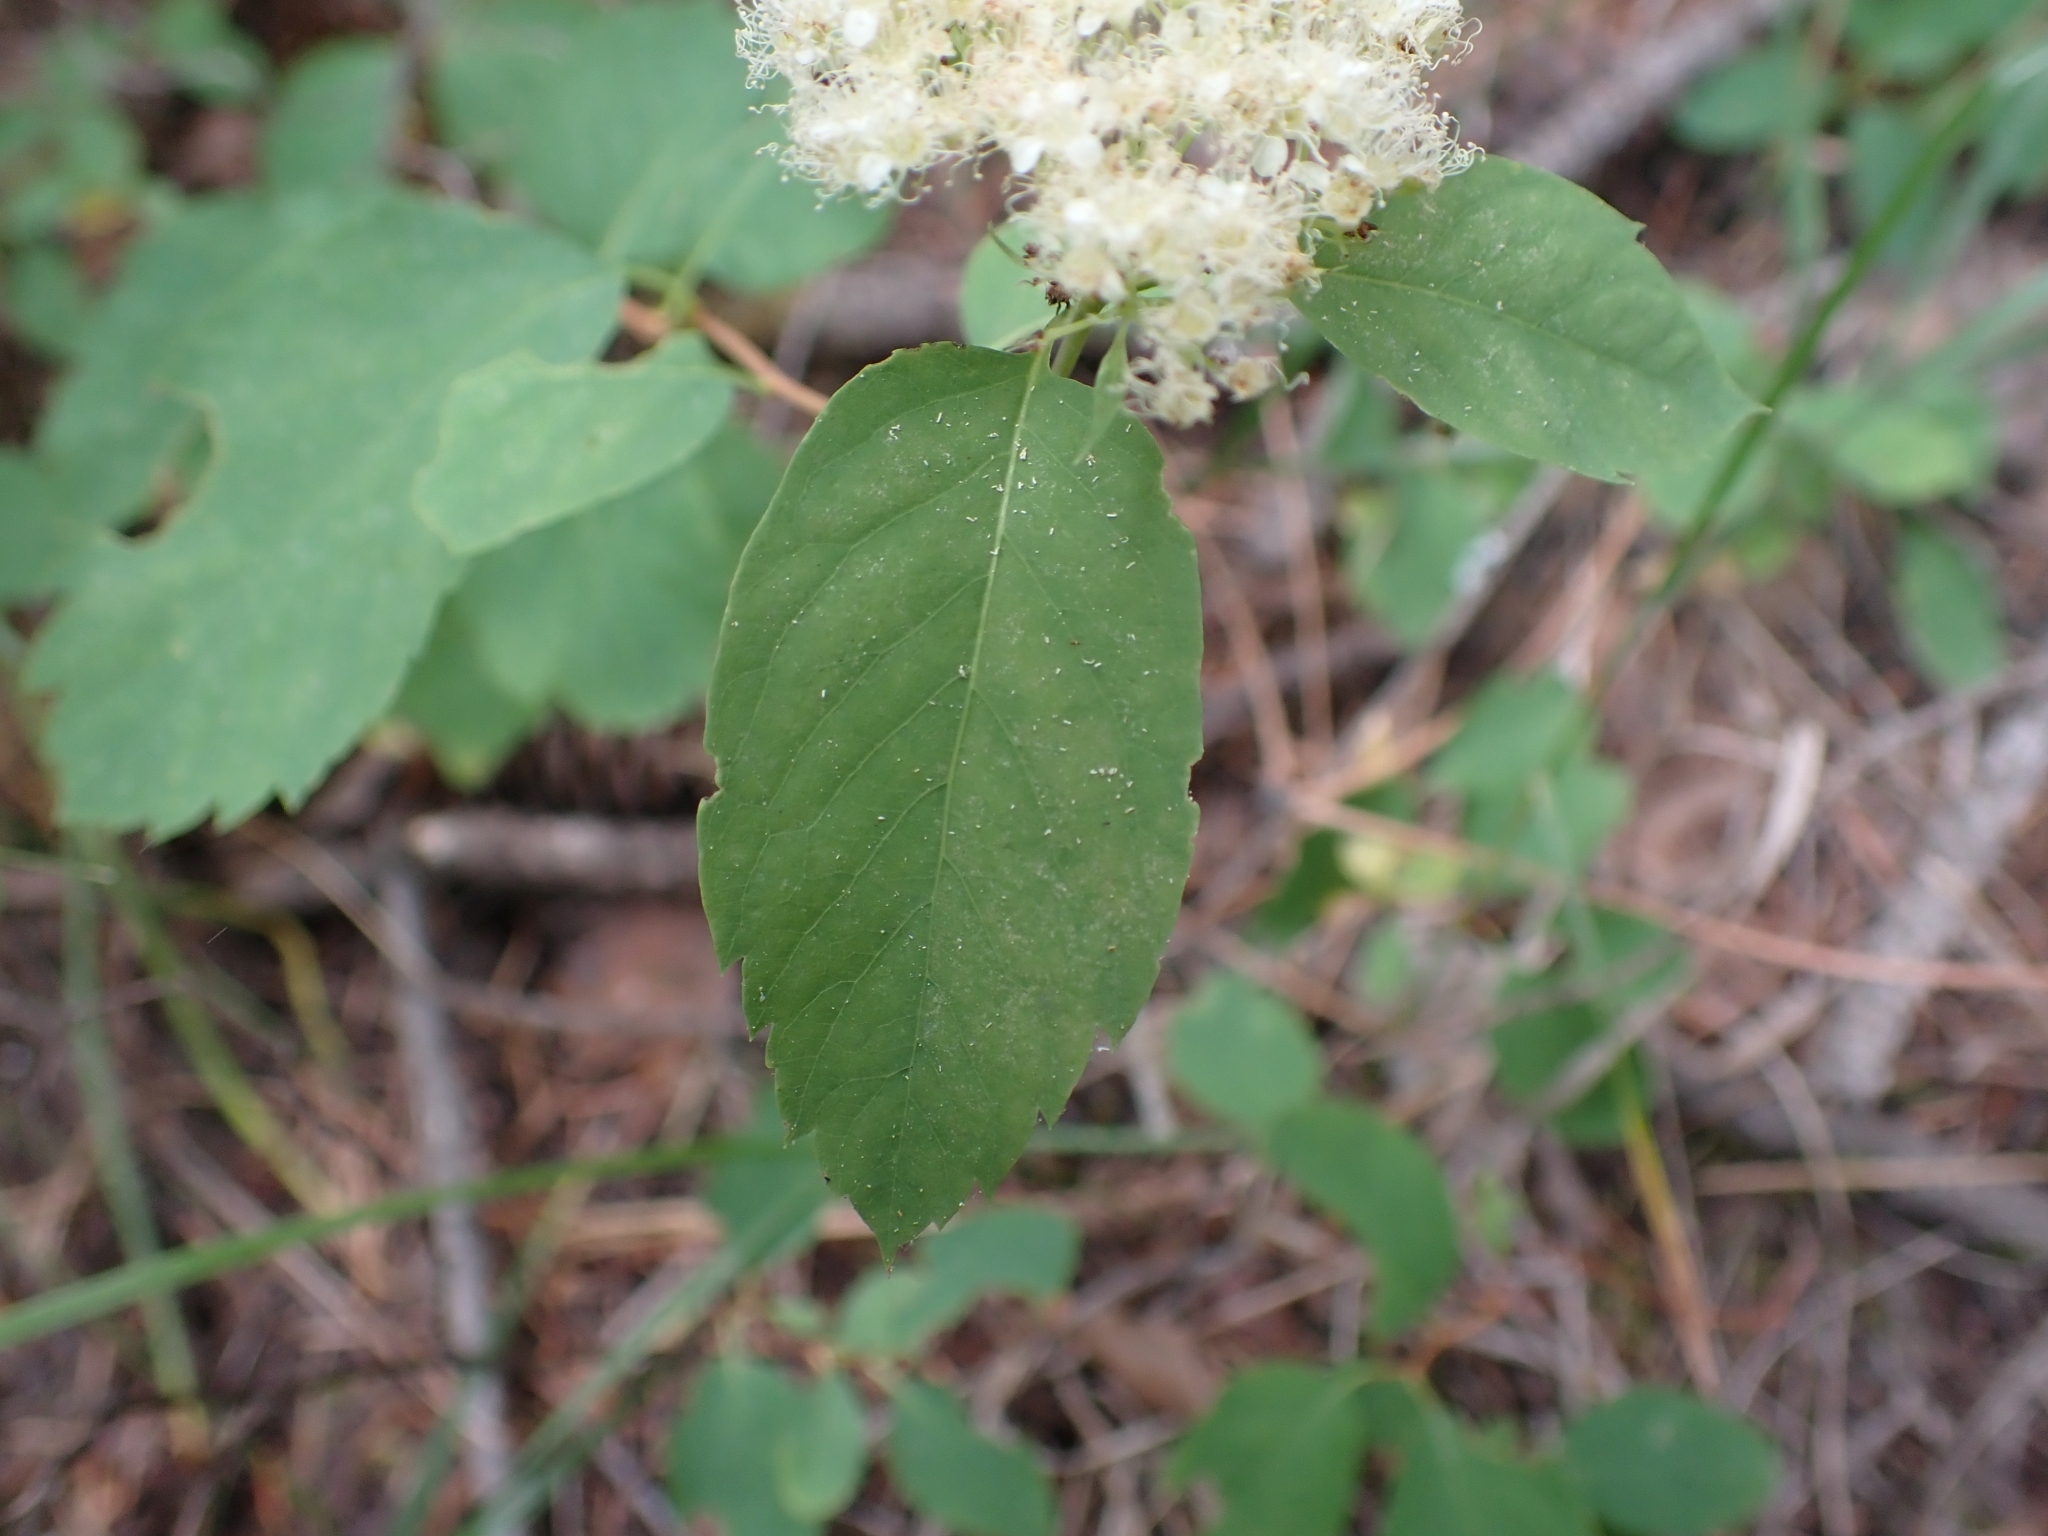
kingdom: Plantae
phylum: Tracheophyta
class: Magnoliopsida
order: Rosales
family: Rosaceae
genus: Spiraea
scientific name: Spiraea lucida
